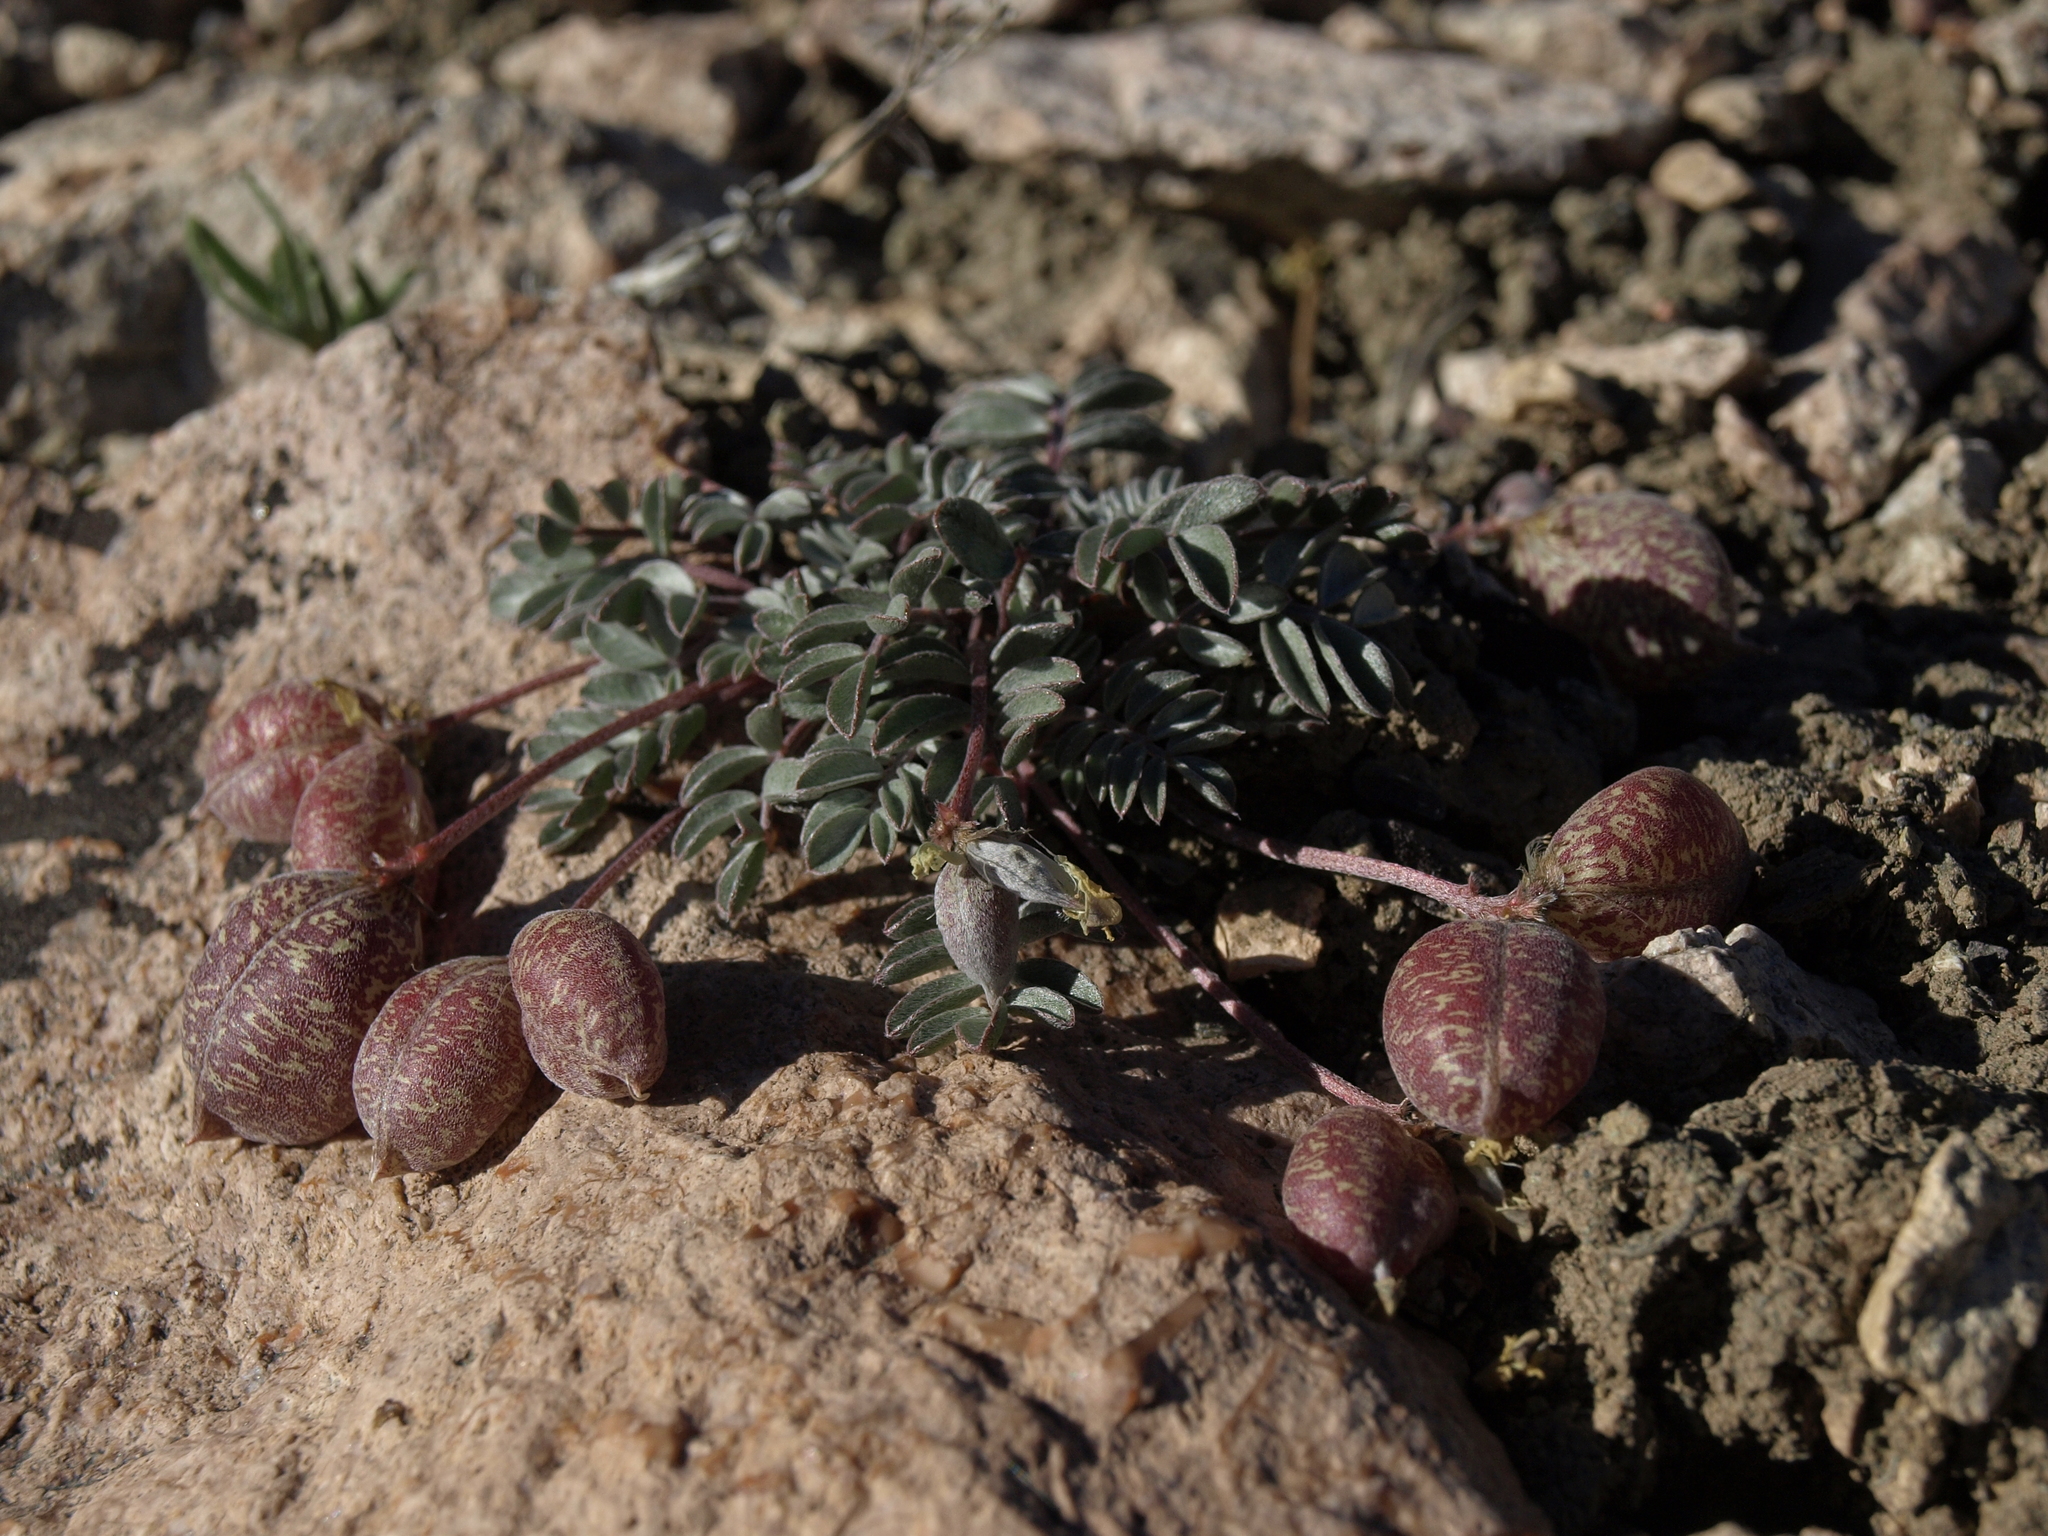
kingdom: Plantae
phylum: Tracheophyta
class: Magnoliopsida
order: Fabales
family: Fabaceae
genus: Astragalus
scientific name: Astragalus platytropis
